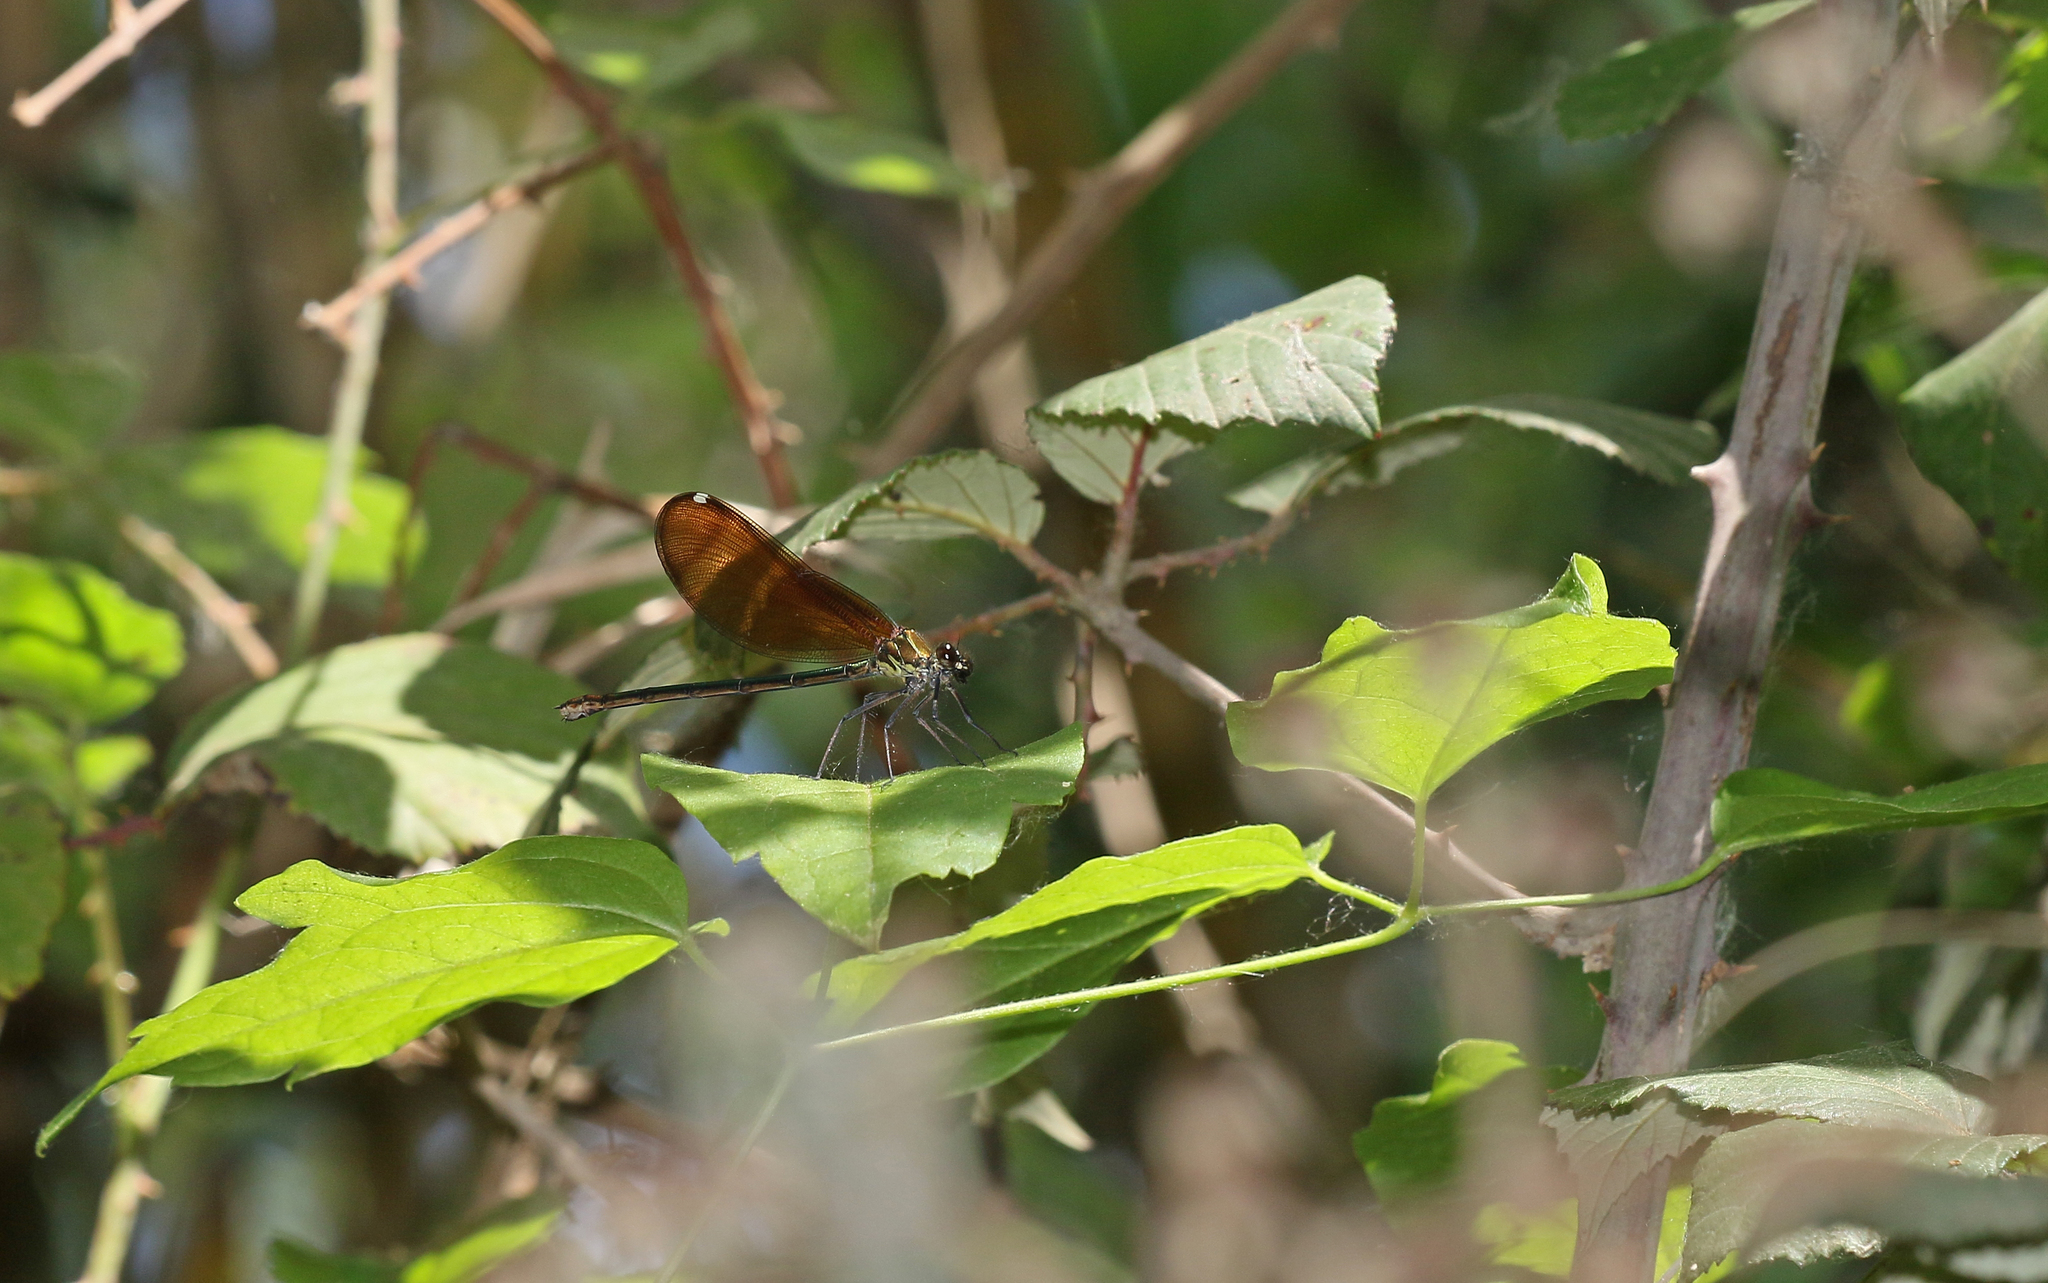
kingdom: Animalia
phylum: Arthropoda
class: Insecta
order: Odonata
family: Calopterygidae
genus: Calopteryx
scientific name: Calopteryx haemorrhoidalis
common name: Copper demoiselle
